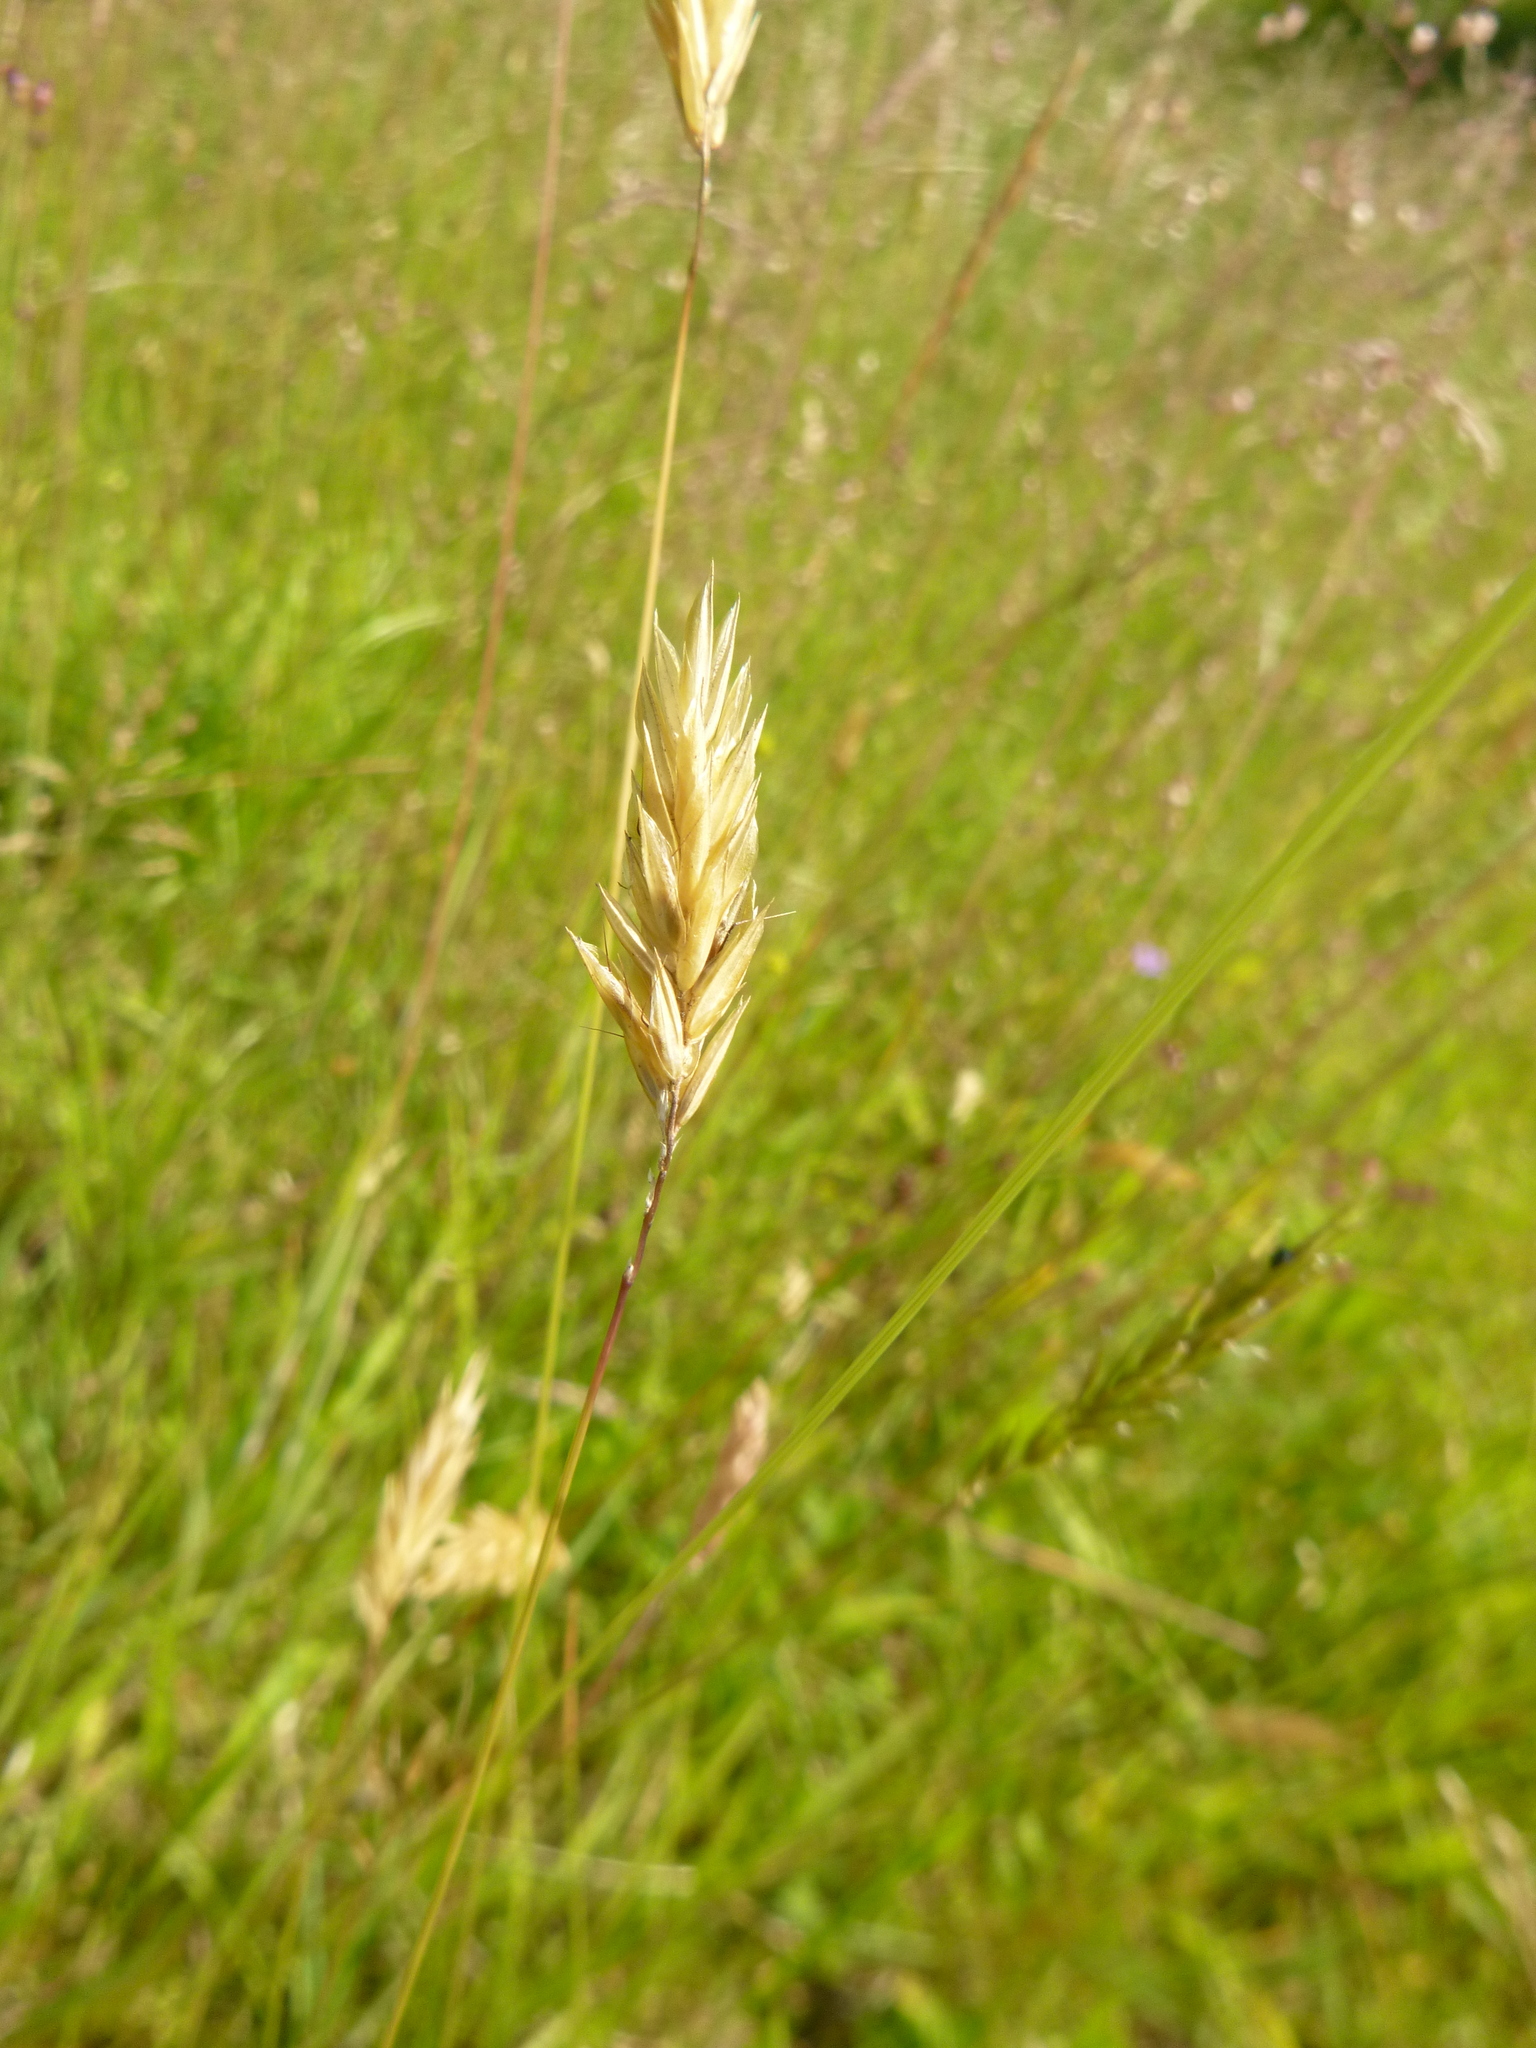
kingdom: Plantae
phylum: Tracheophyta
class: Liliopsida
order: Poales
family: Poaceae
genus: Anthoxanthum
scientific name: Anthoxanthum odoratum
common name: Sweet vernalgrass
